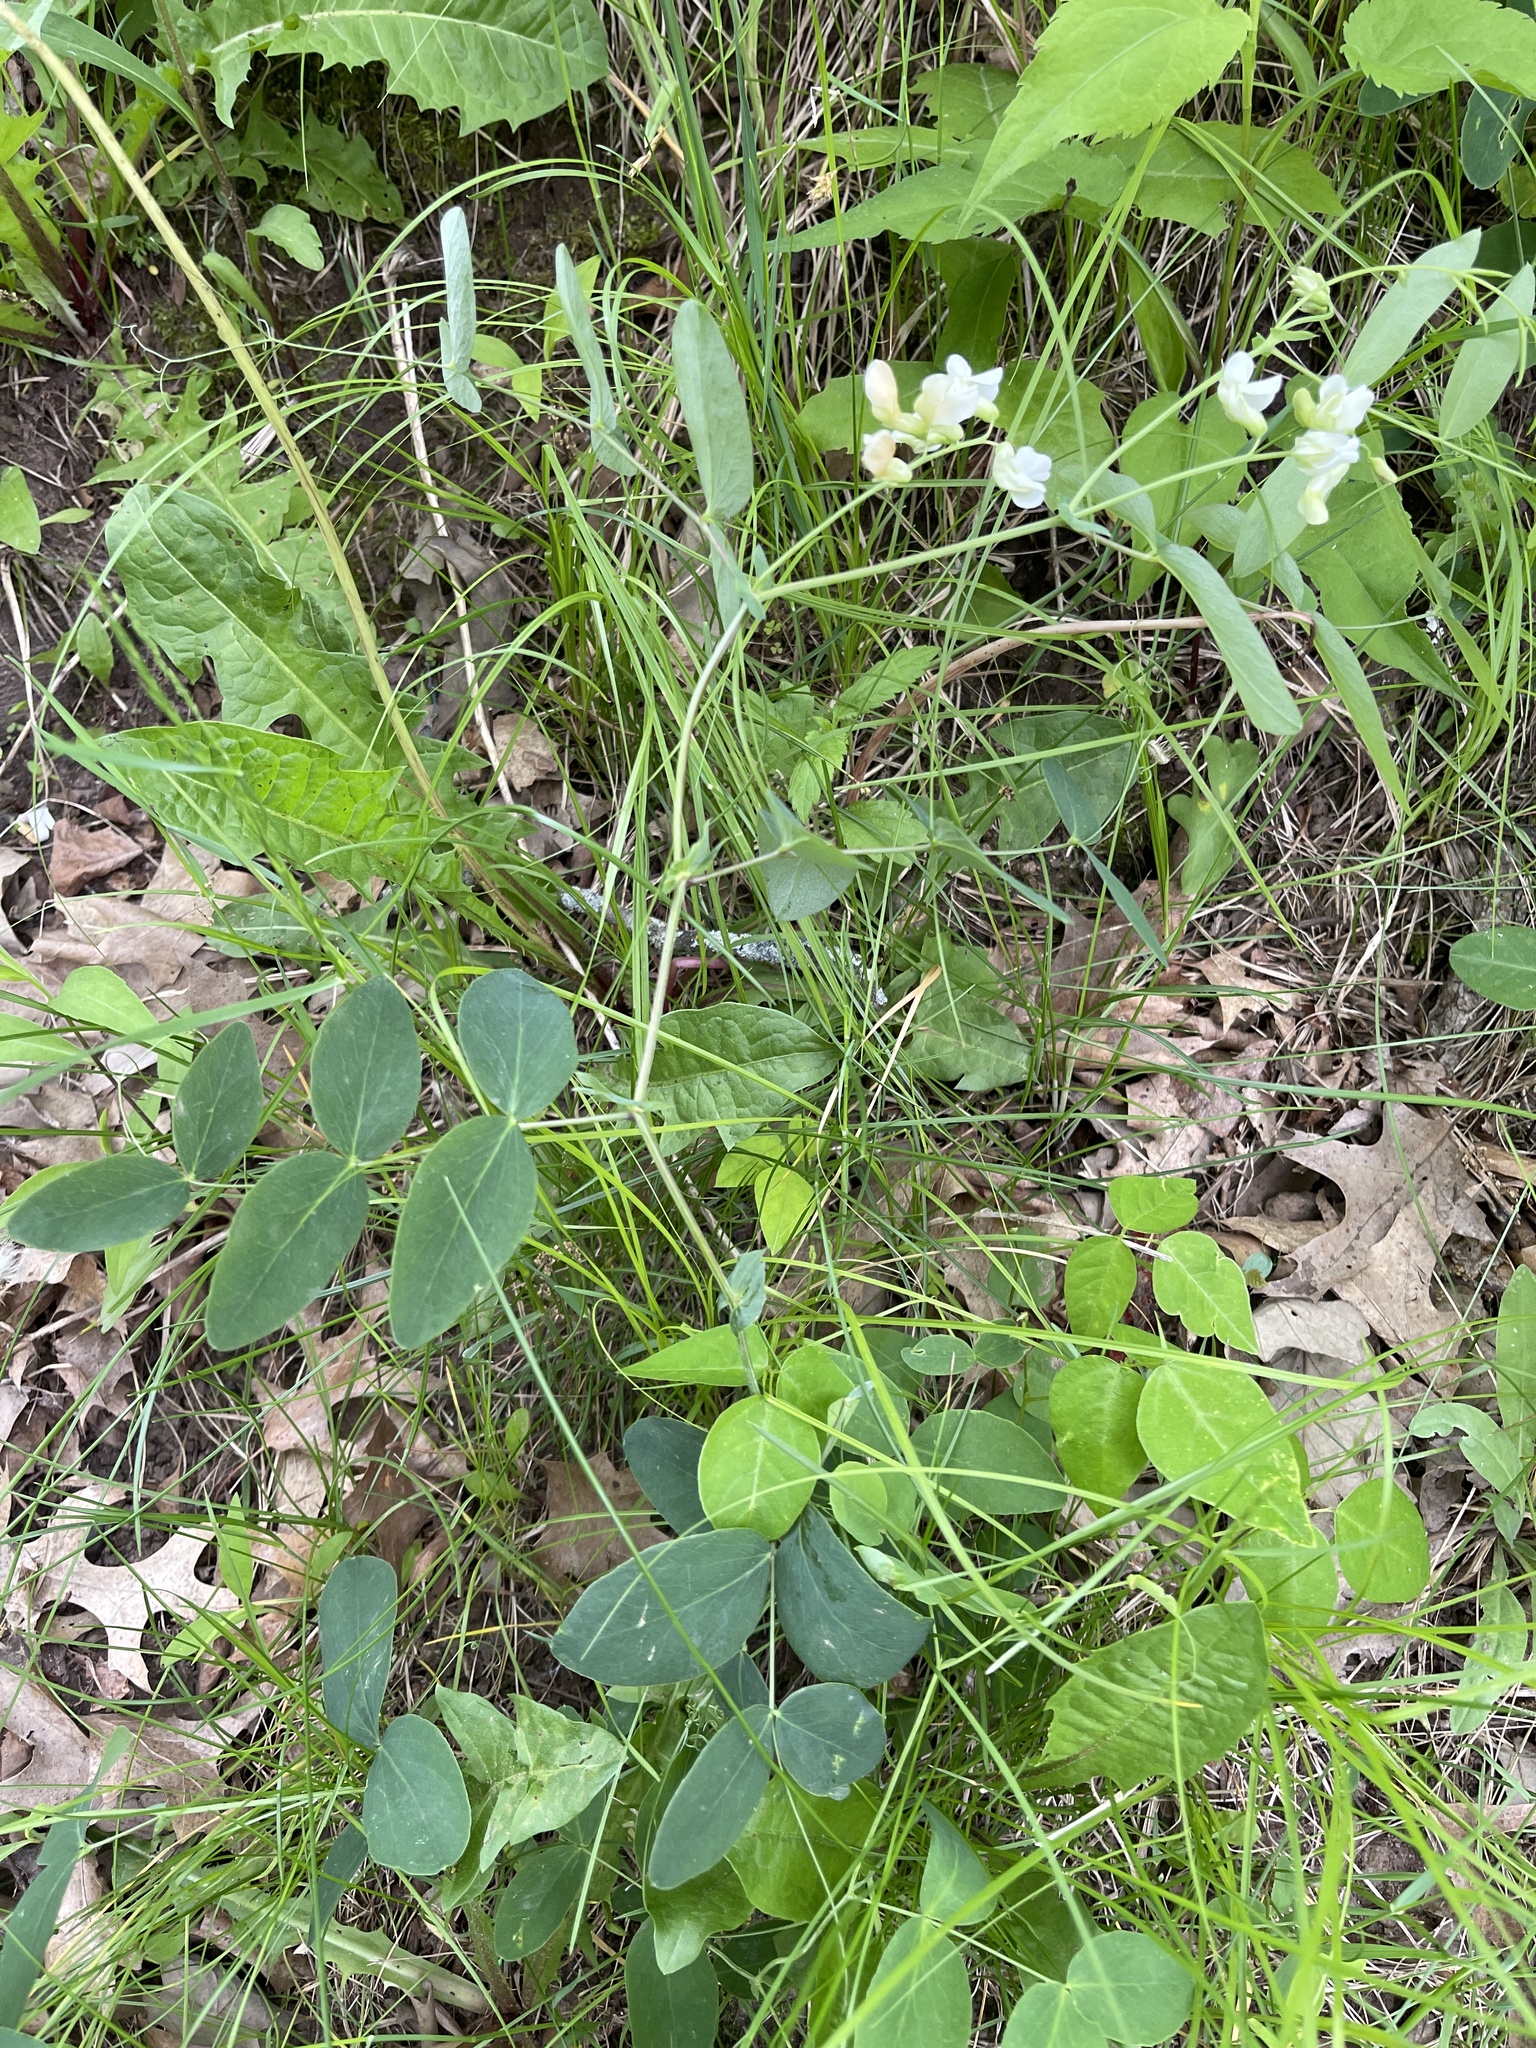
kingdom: Plantae
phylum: Tracheophyta
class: Magnoliopsida
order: Fabales
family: Fabaceae
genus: Lathyrus
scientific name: Lathyrus ochroleucus
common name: Pale vetchling
